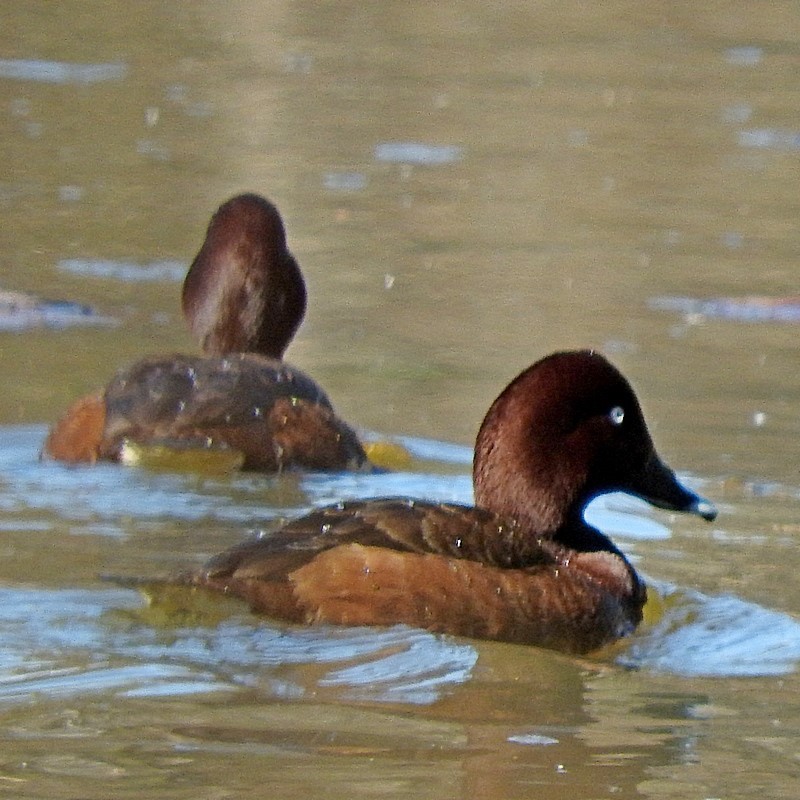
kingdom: Animalia
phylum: Chordata
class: Aves
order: Anseriformes
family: Anatidae
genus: Aythya
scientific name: Aythya australis
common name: Hardhead
